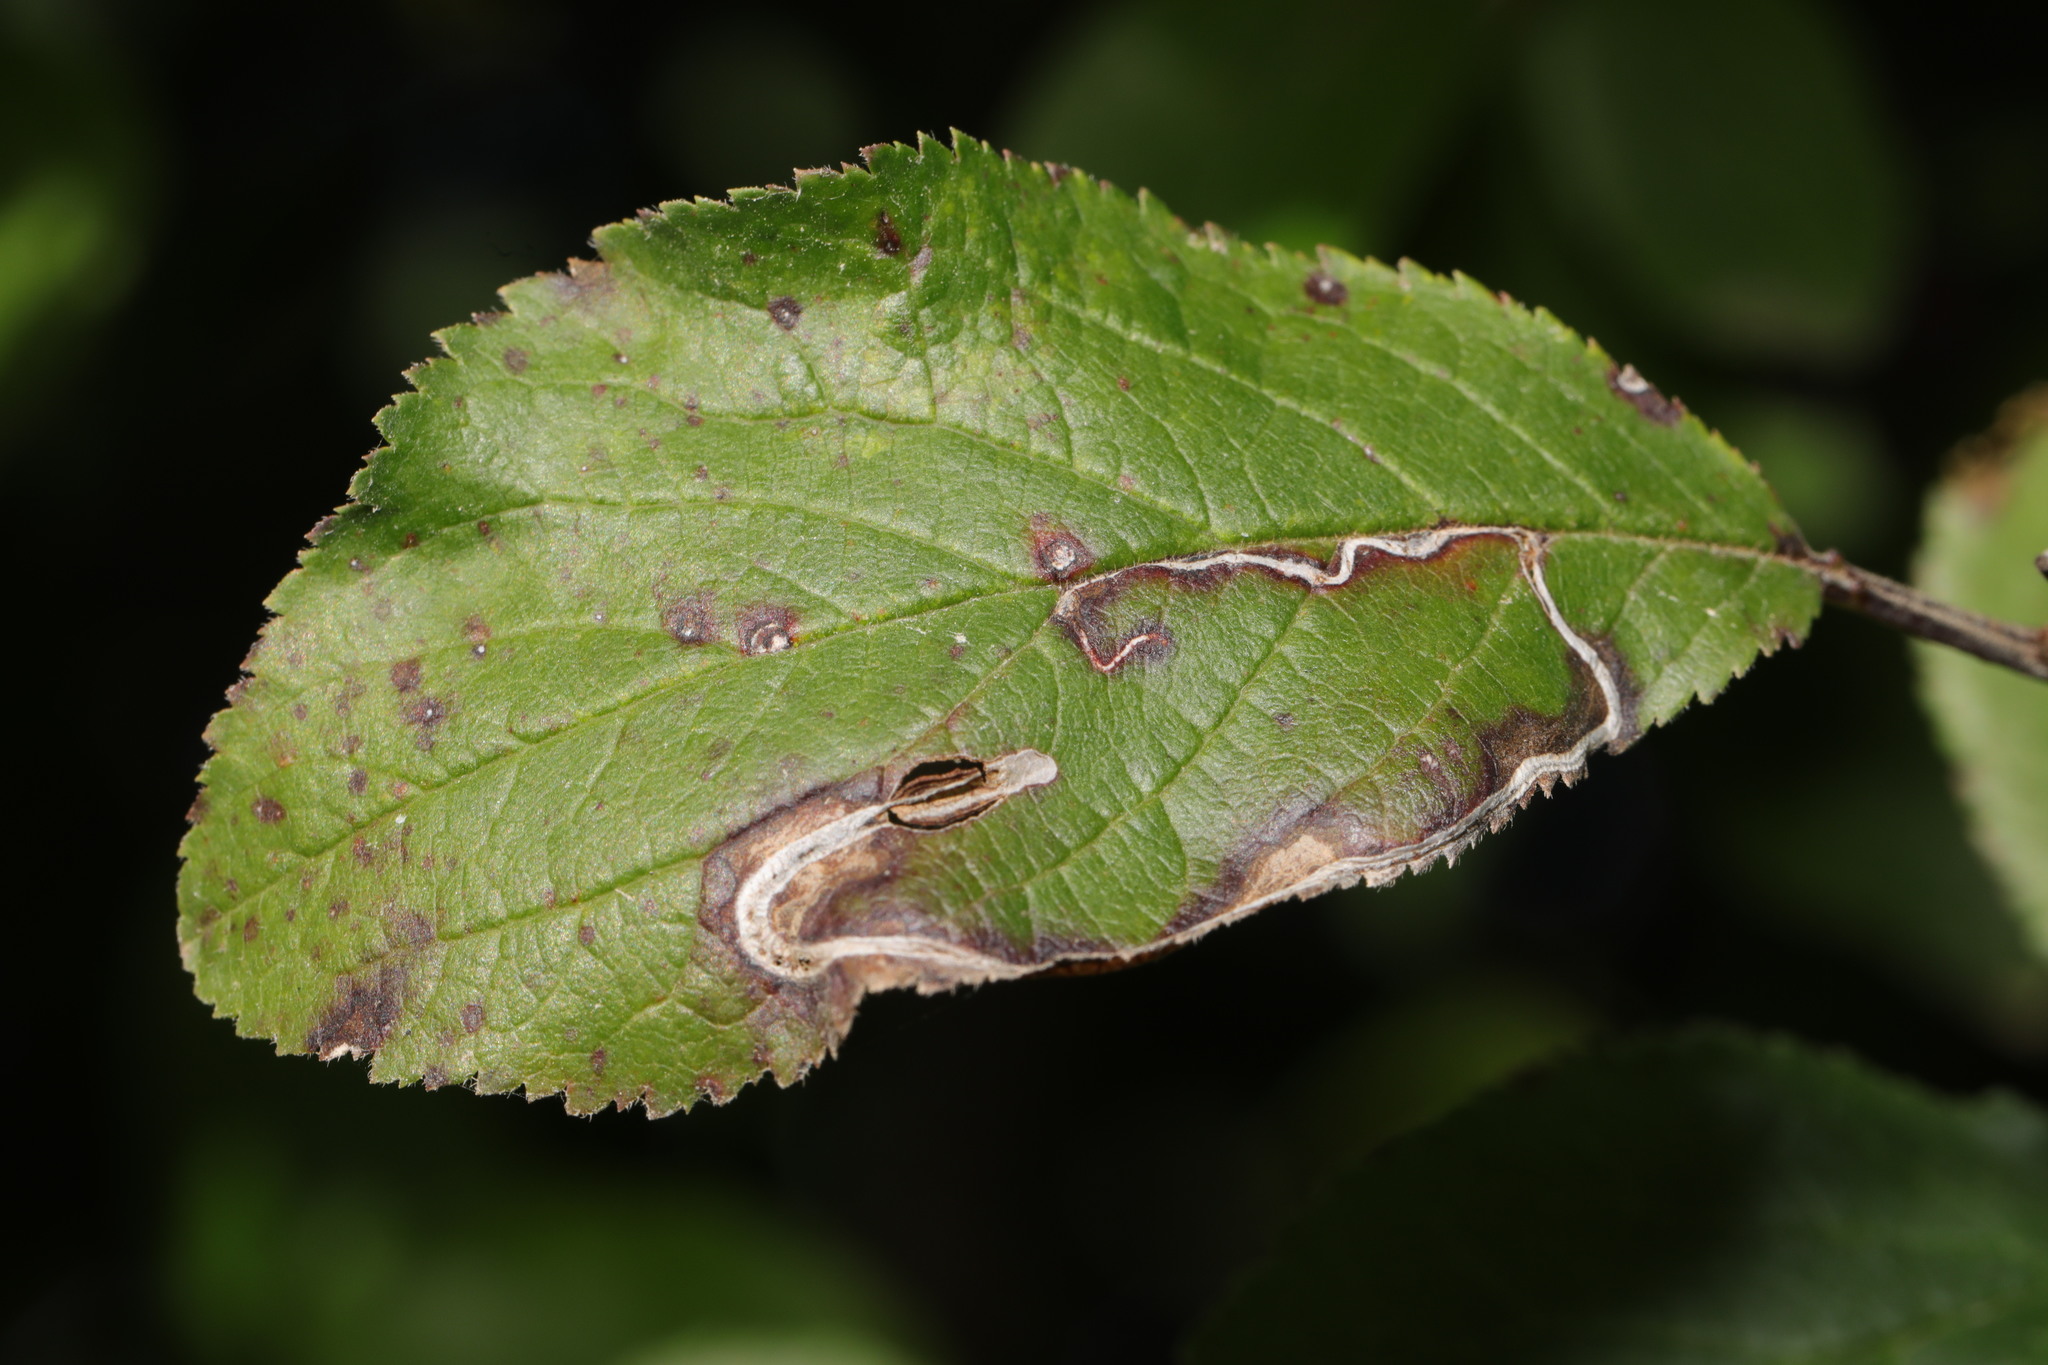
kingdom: Animalia
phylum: Arthropoda
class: Insecta
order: Lepidoptera
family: Lyonetiidae
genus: Lyonetia
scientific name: Lyonetia clerkella
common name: Apple leaf miner
